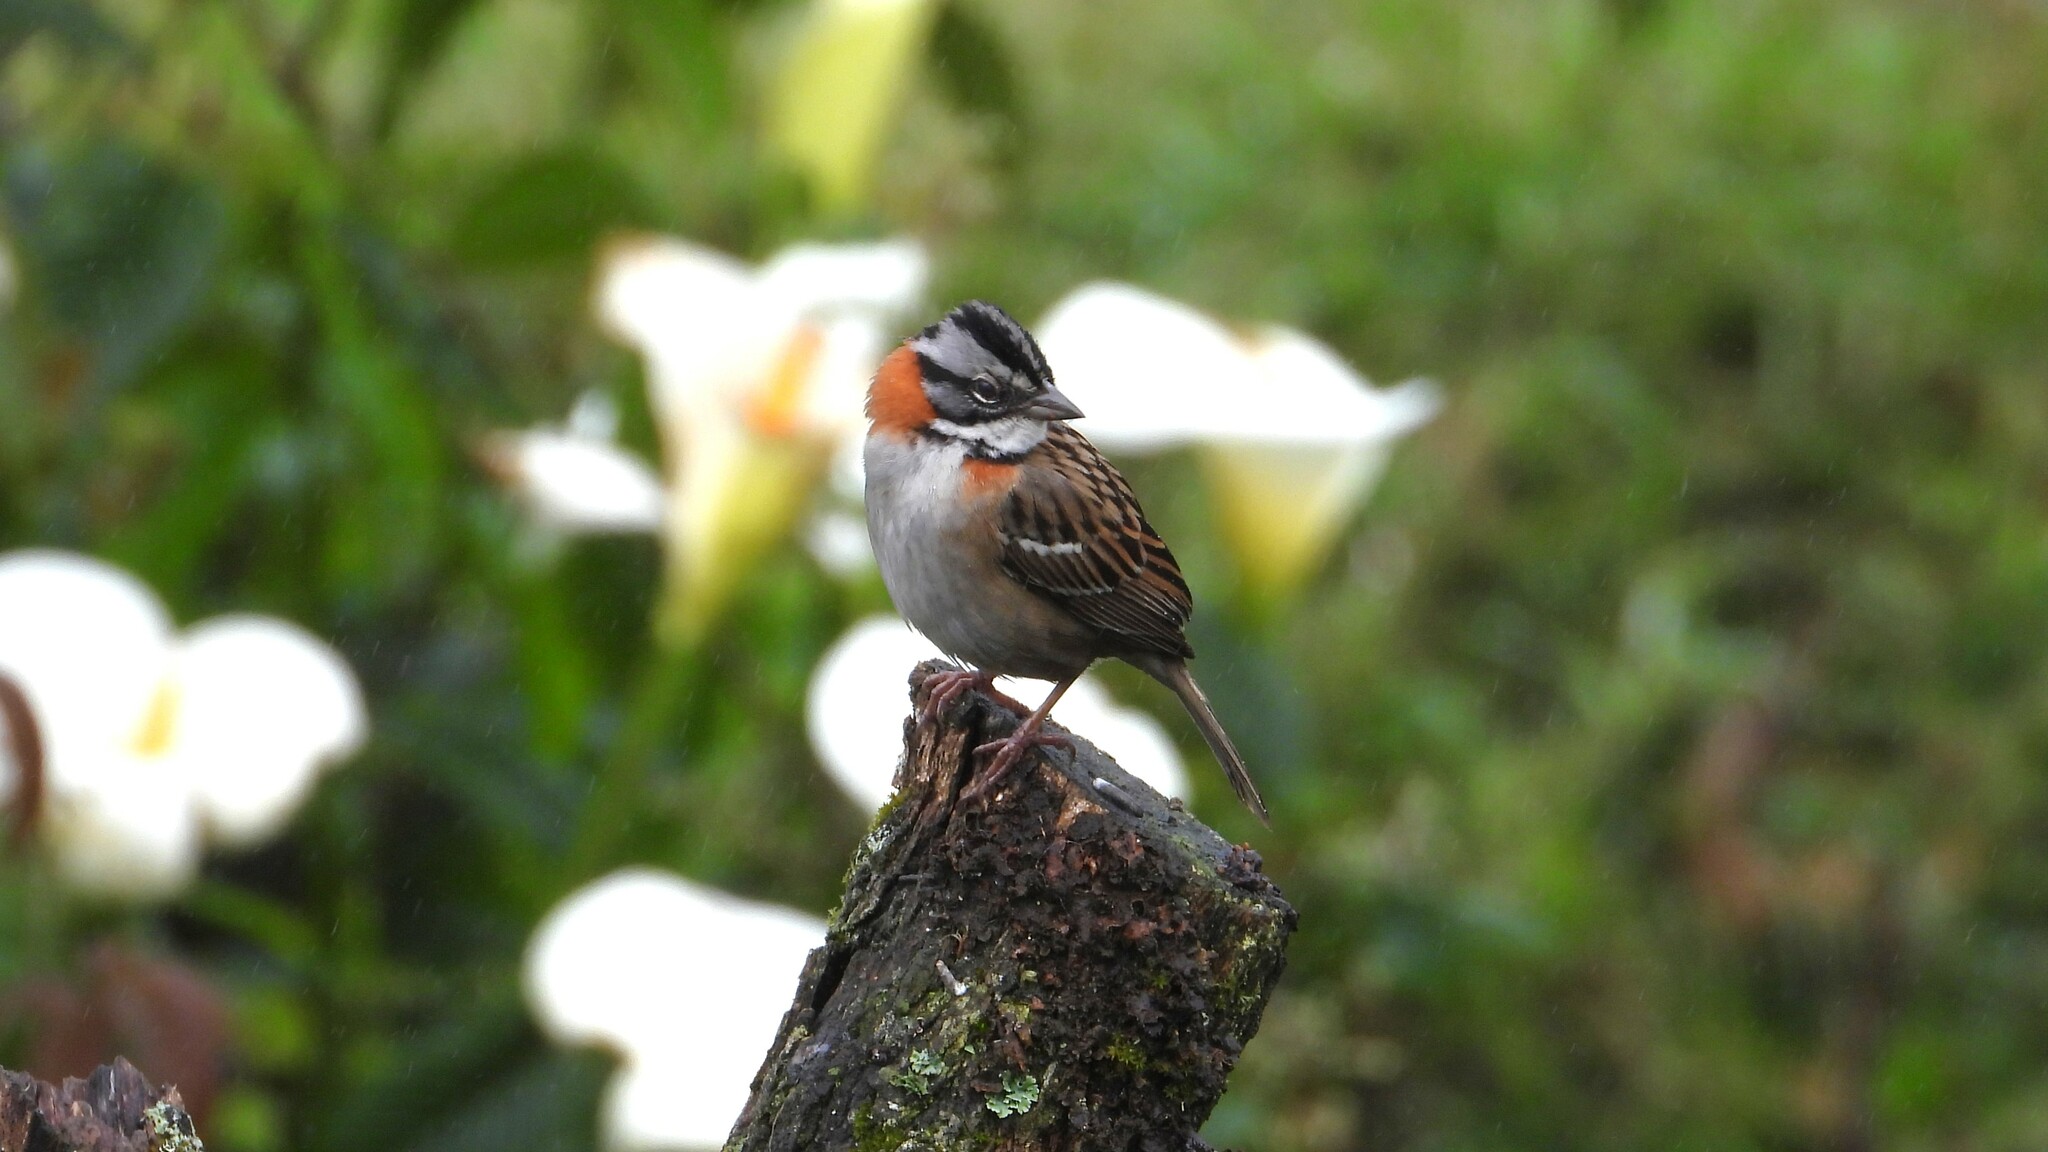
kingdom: Animalia
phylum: Chordata
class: Aves
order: Passeriformes
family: Passerellidae
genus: Zonotrichia
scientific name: Zonotrichia capensis
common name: Rufous-collared sparrow
